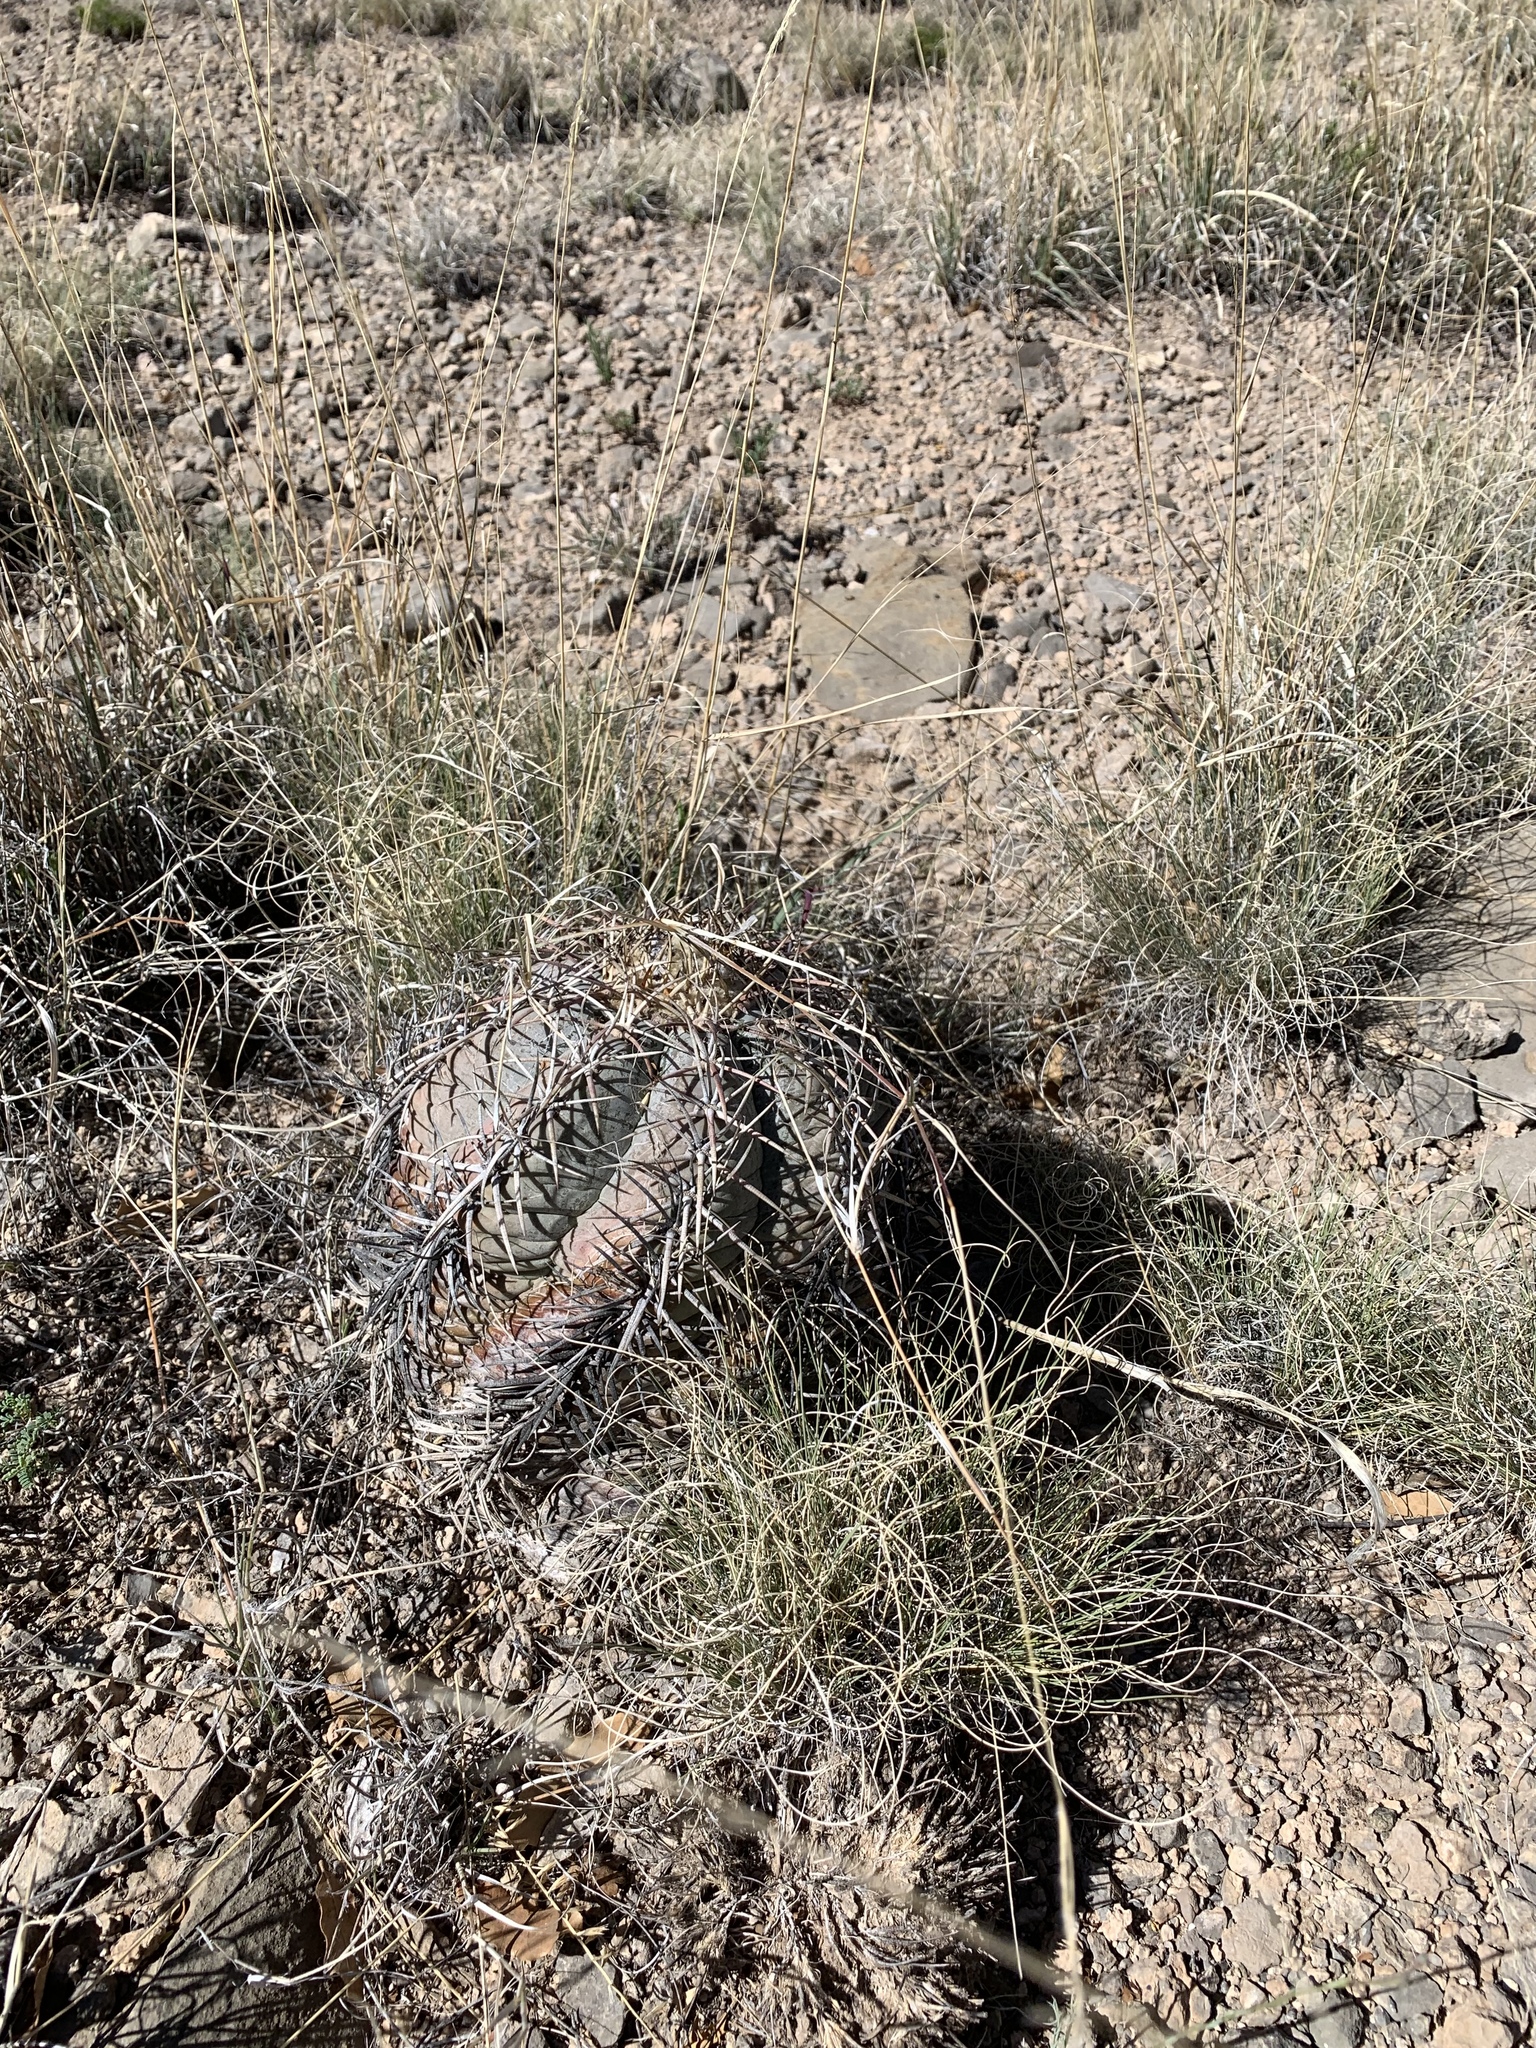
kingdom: Plantae
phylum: Tracheophyta
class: Magnoliopsida
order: Caryophyllales
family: Cactaceae
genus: Echinocactus
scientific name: Echinocactus horizonthalonius
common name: Devilshead
